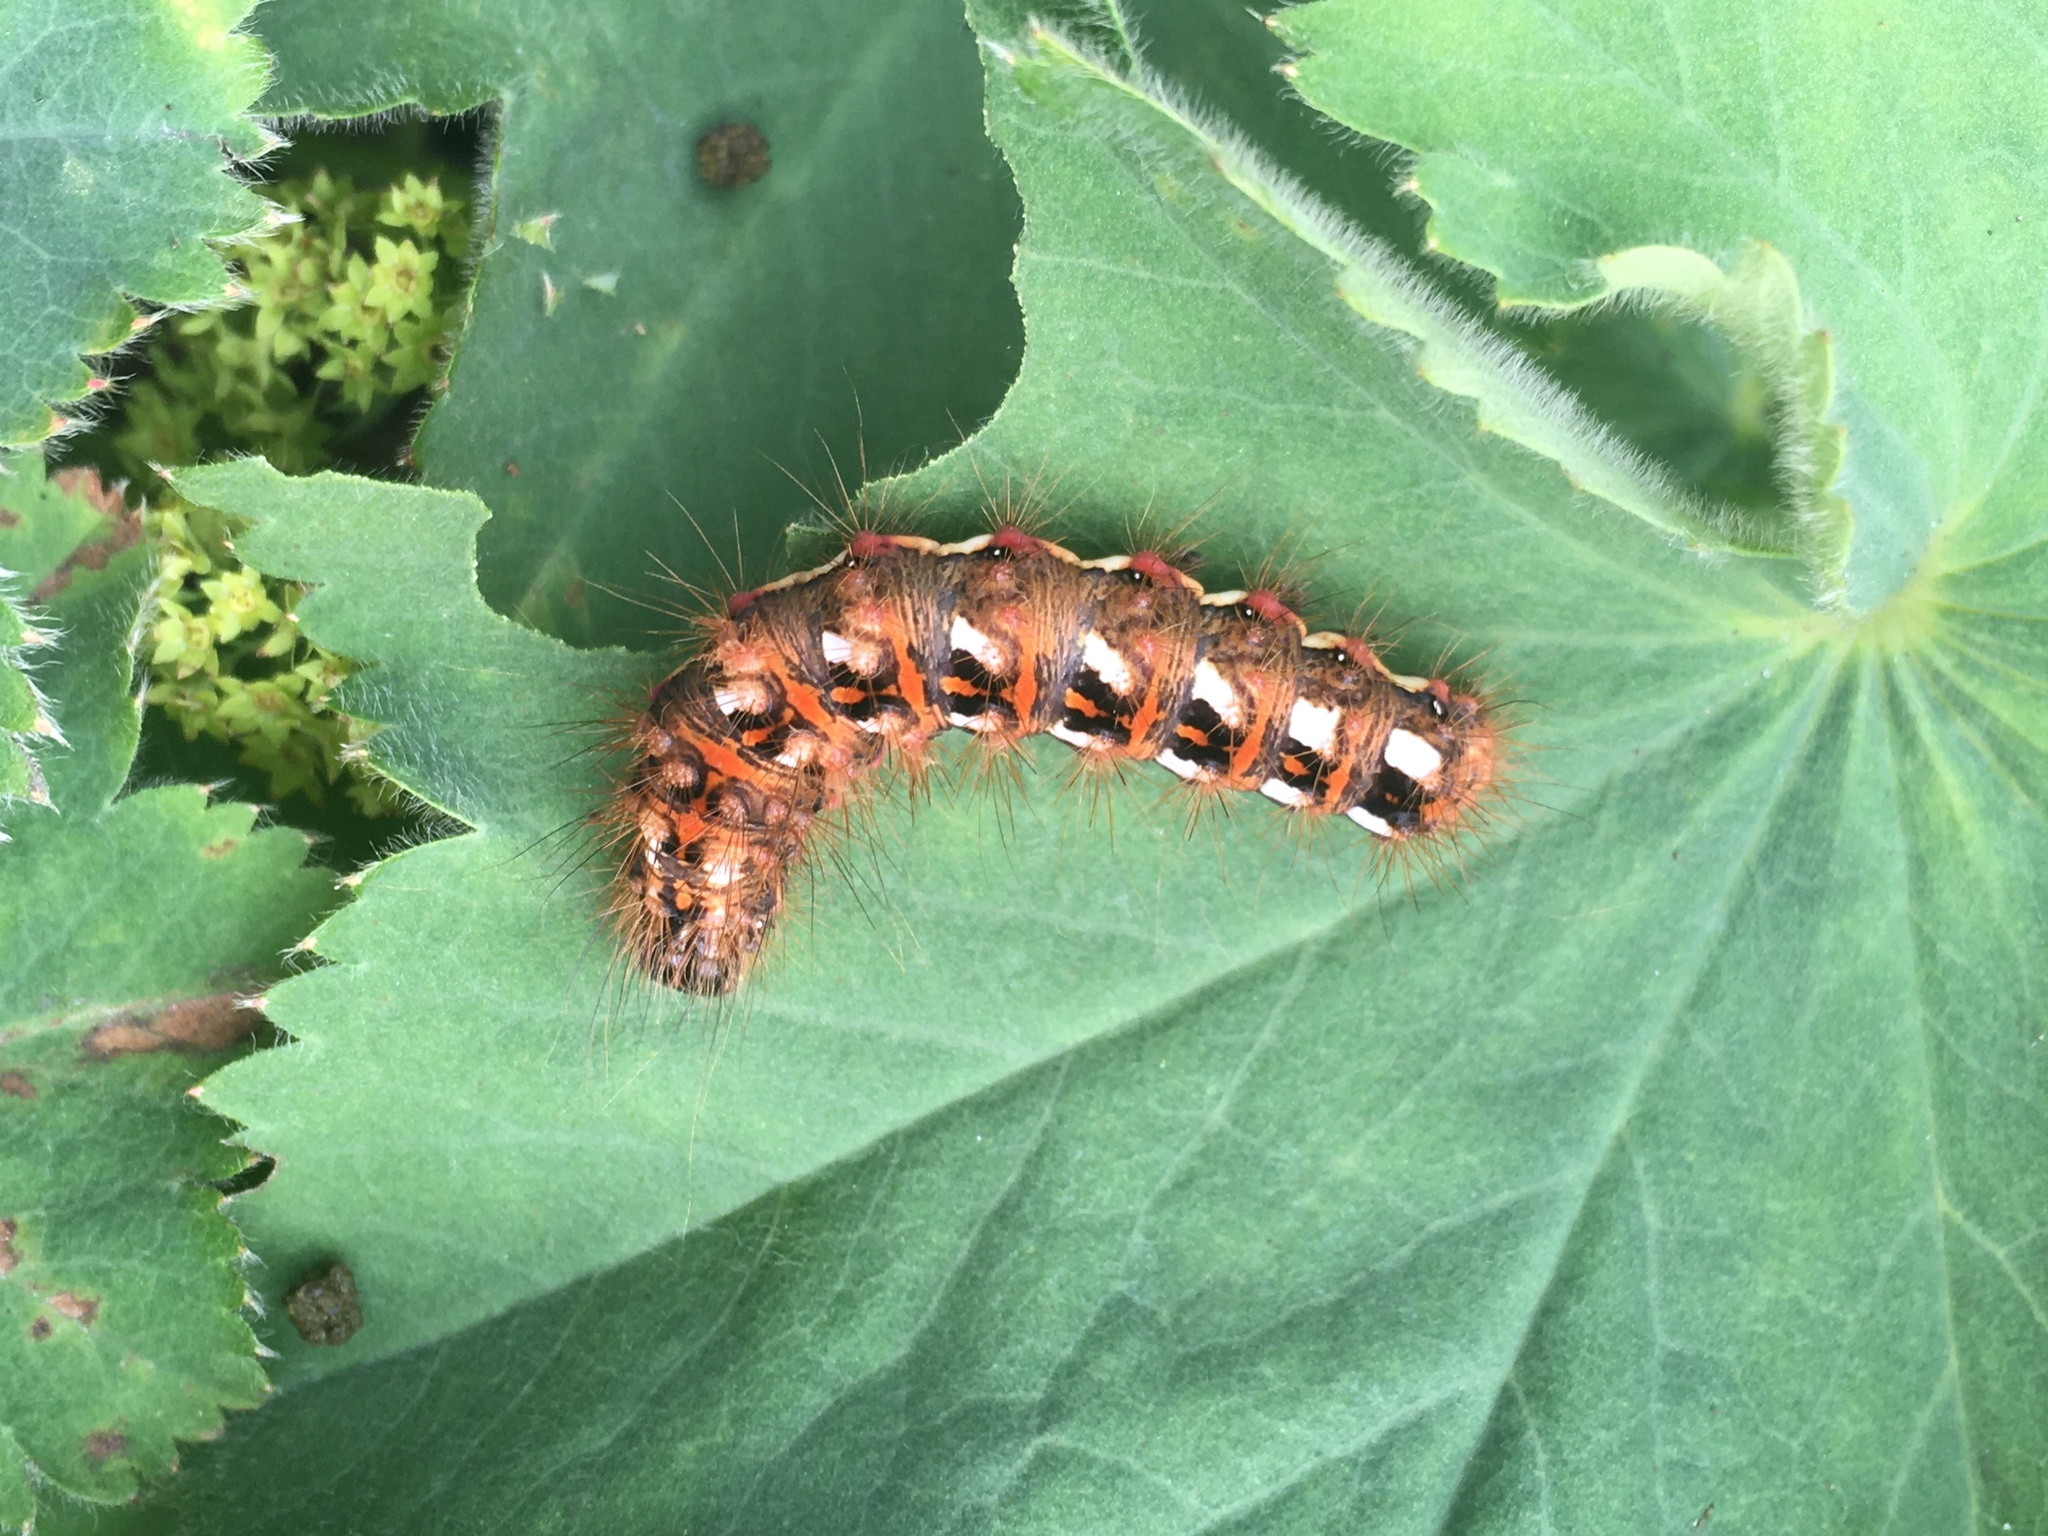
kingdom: Animalia
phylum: Arthropoda
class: Insecta
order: Lepidoptera
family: Noctuidae
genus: Acronicta
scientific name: Acronicta rumicis
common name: Knot grass
